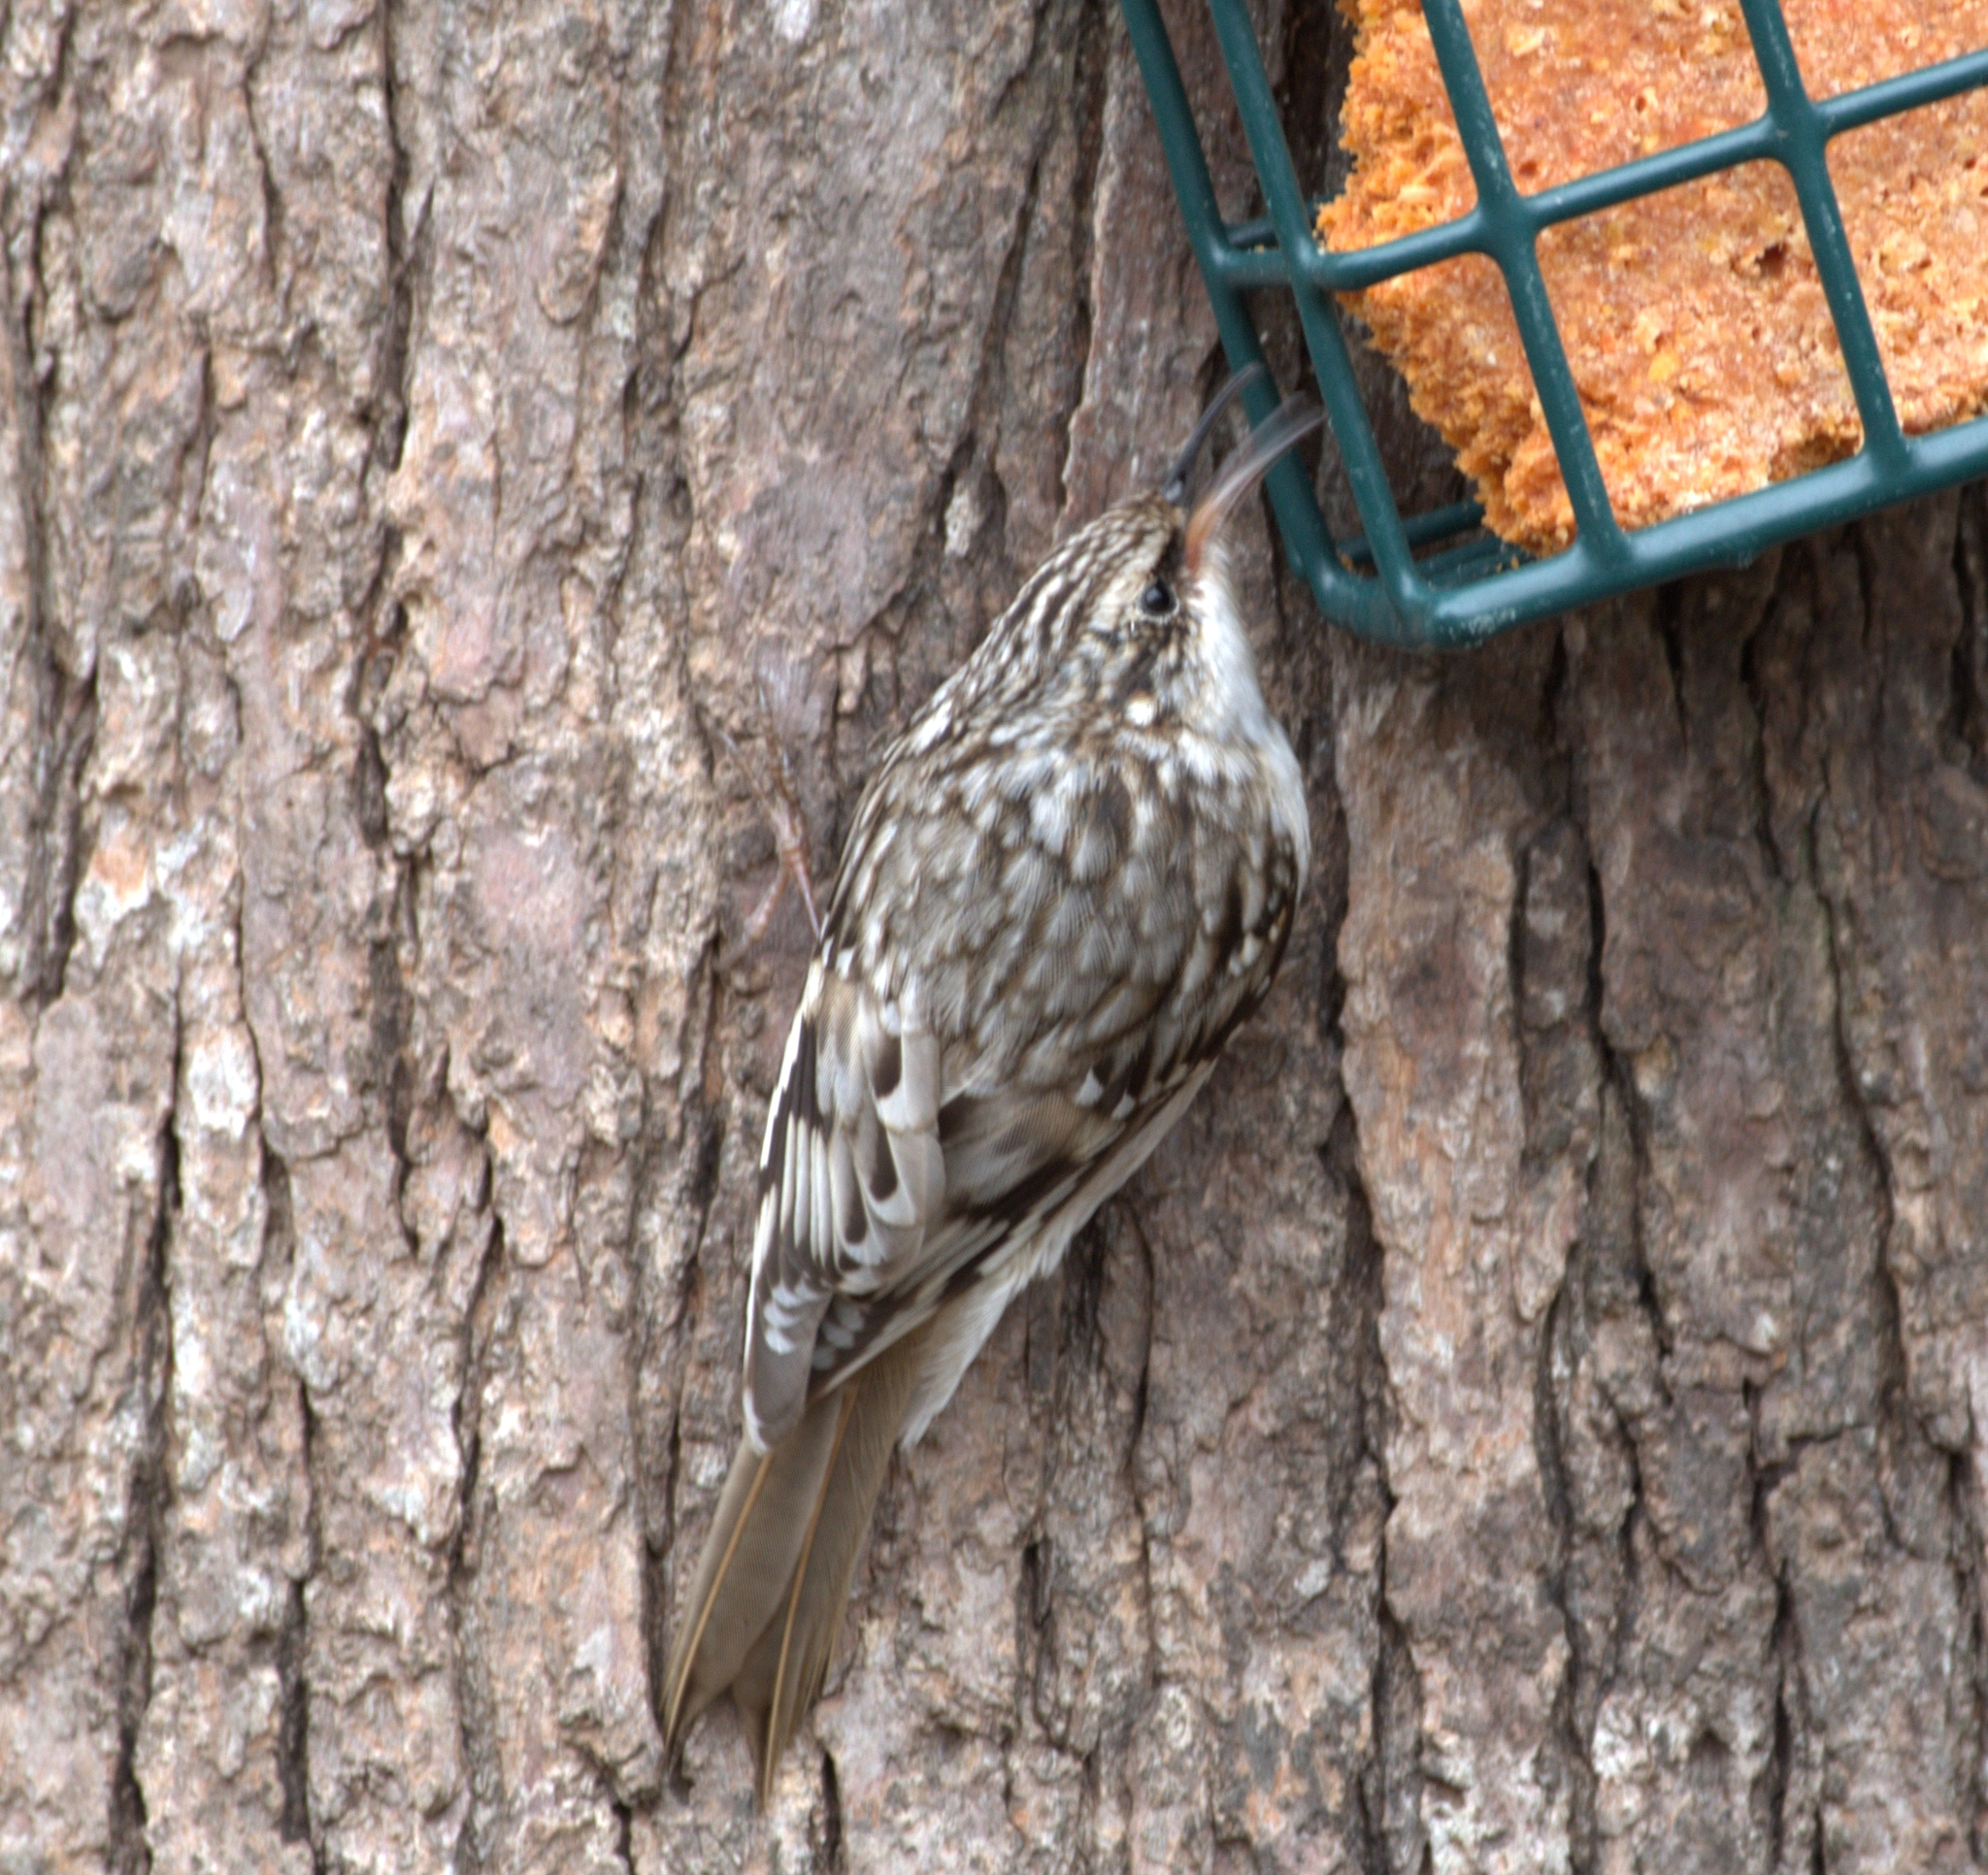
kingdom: Animalia
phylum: Chordata
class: Aves
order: Passeriformes
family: Certhiidae
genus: Certhia
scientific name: Certhia americana
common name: Brown creeper
